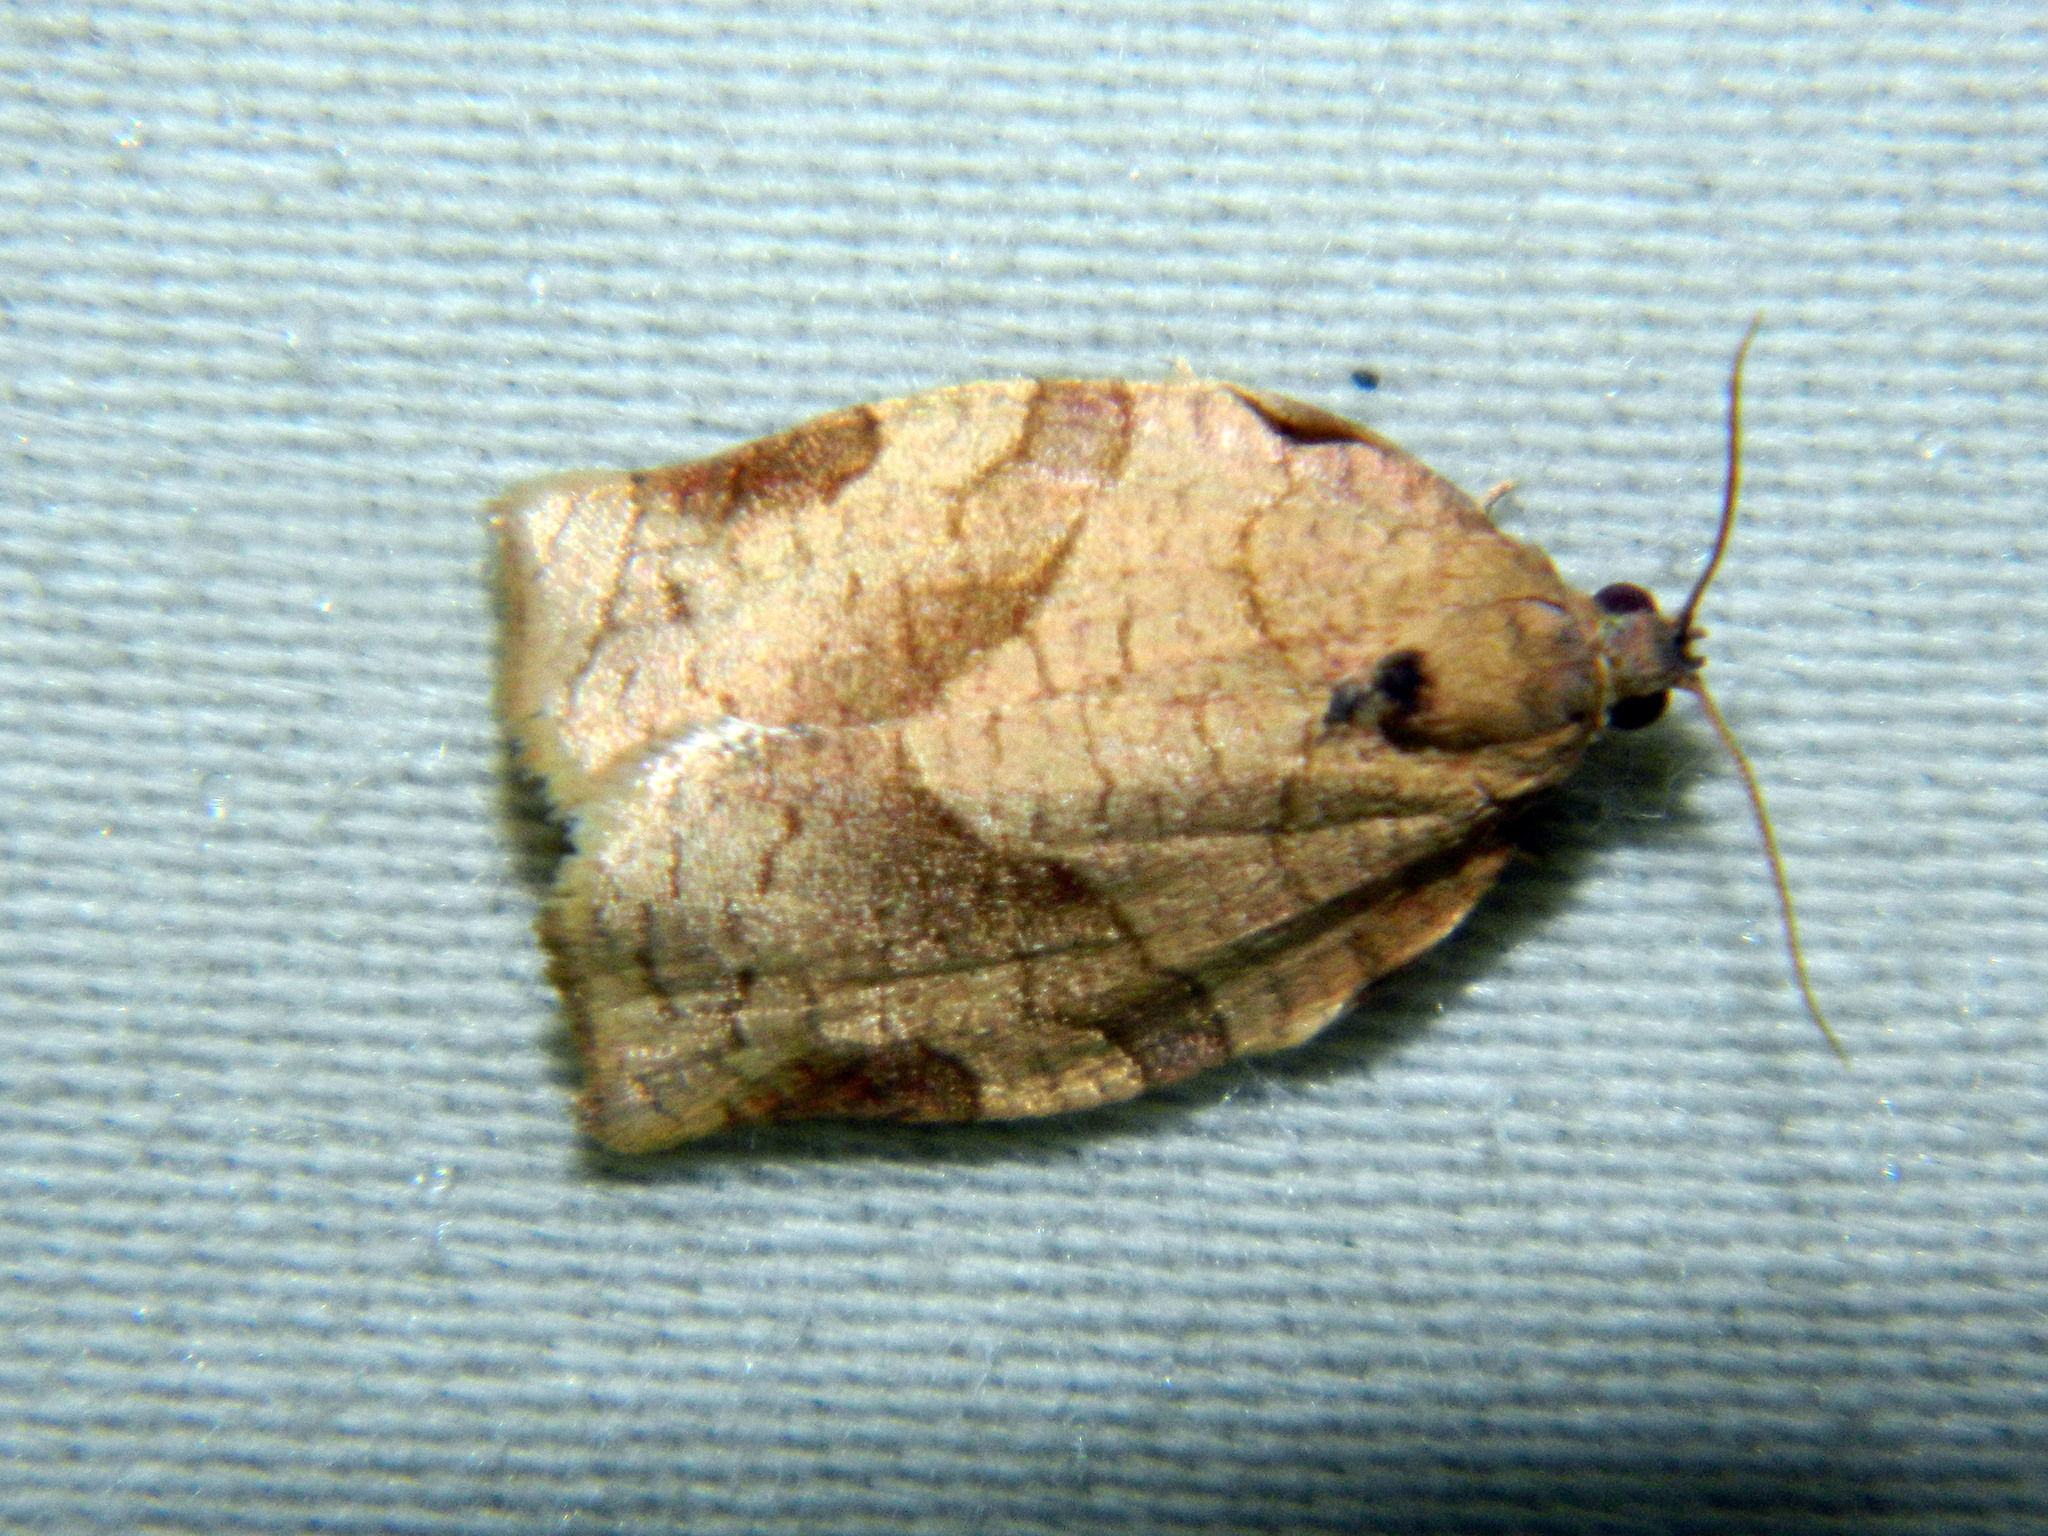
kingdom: Animalia
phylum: Arthropoda
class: Insecta
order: Lepidoptera
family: Tortricidae
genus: Choristoneura
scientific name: Choristoneura rosaceana
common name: Oblique-banded leafroller moth
